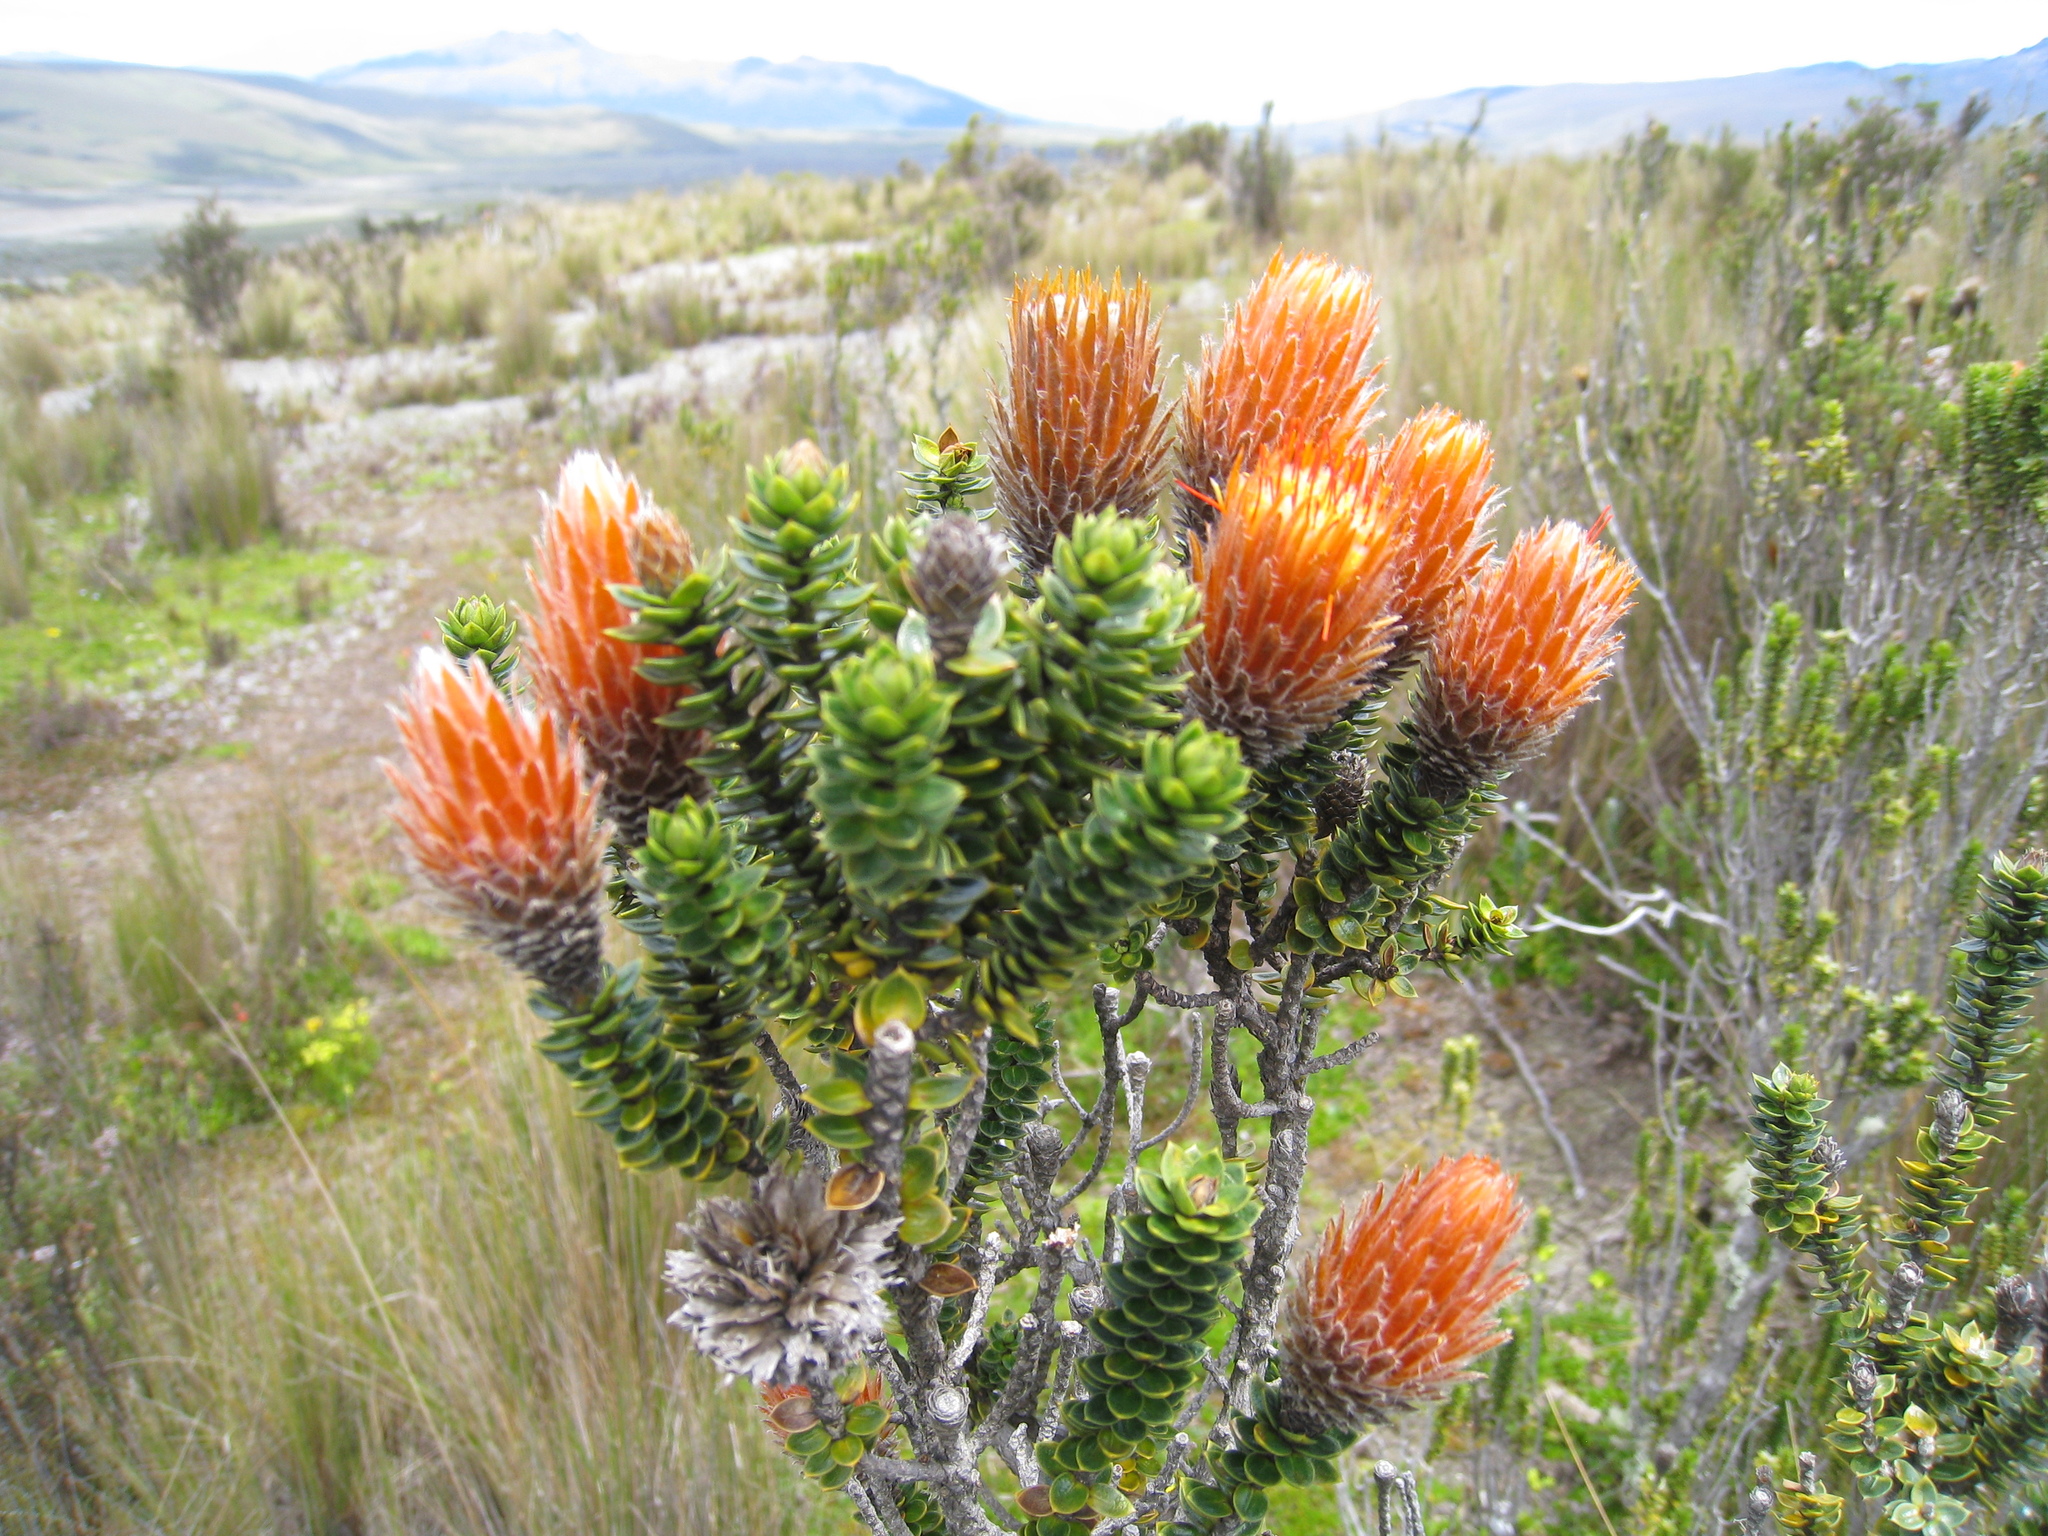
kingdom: Plantae
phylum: Tracheophyta
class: Magnoliopsida
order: Asterales
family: Asteraceae
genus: Chuquiraga
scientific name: Chuquiraga jussieui
